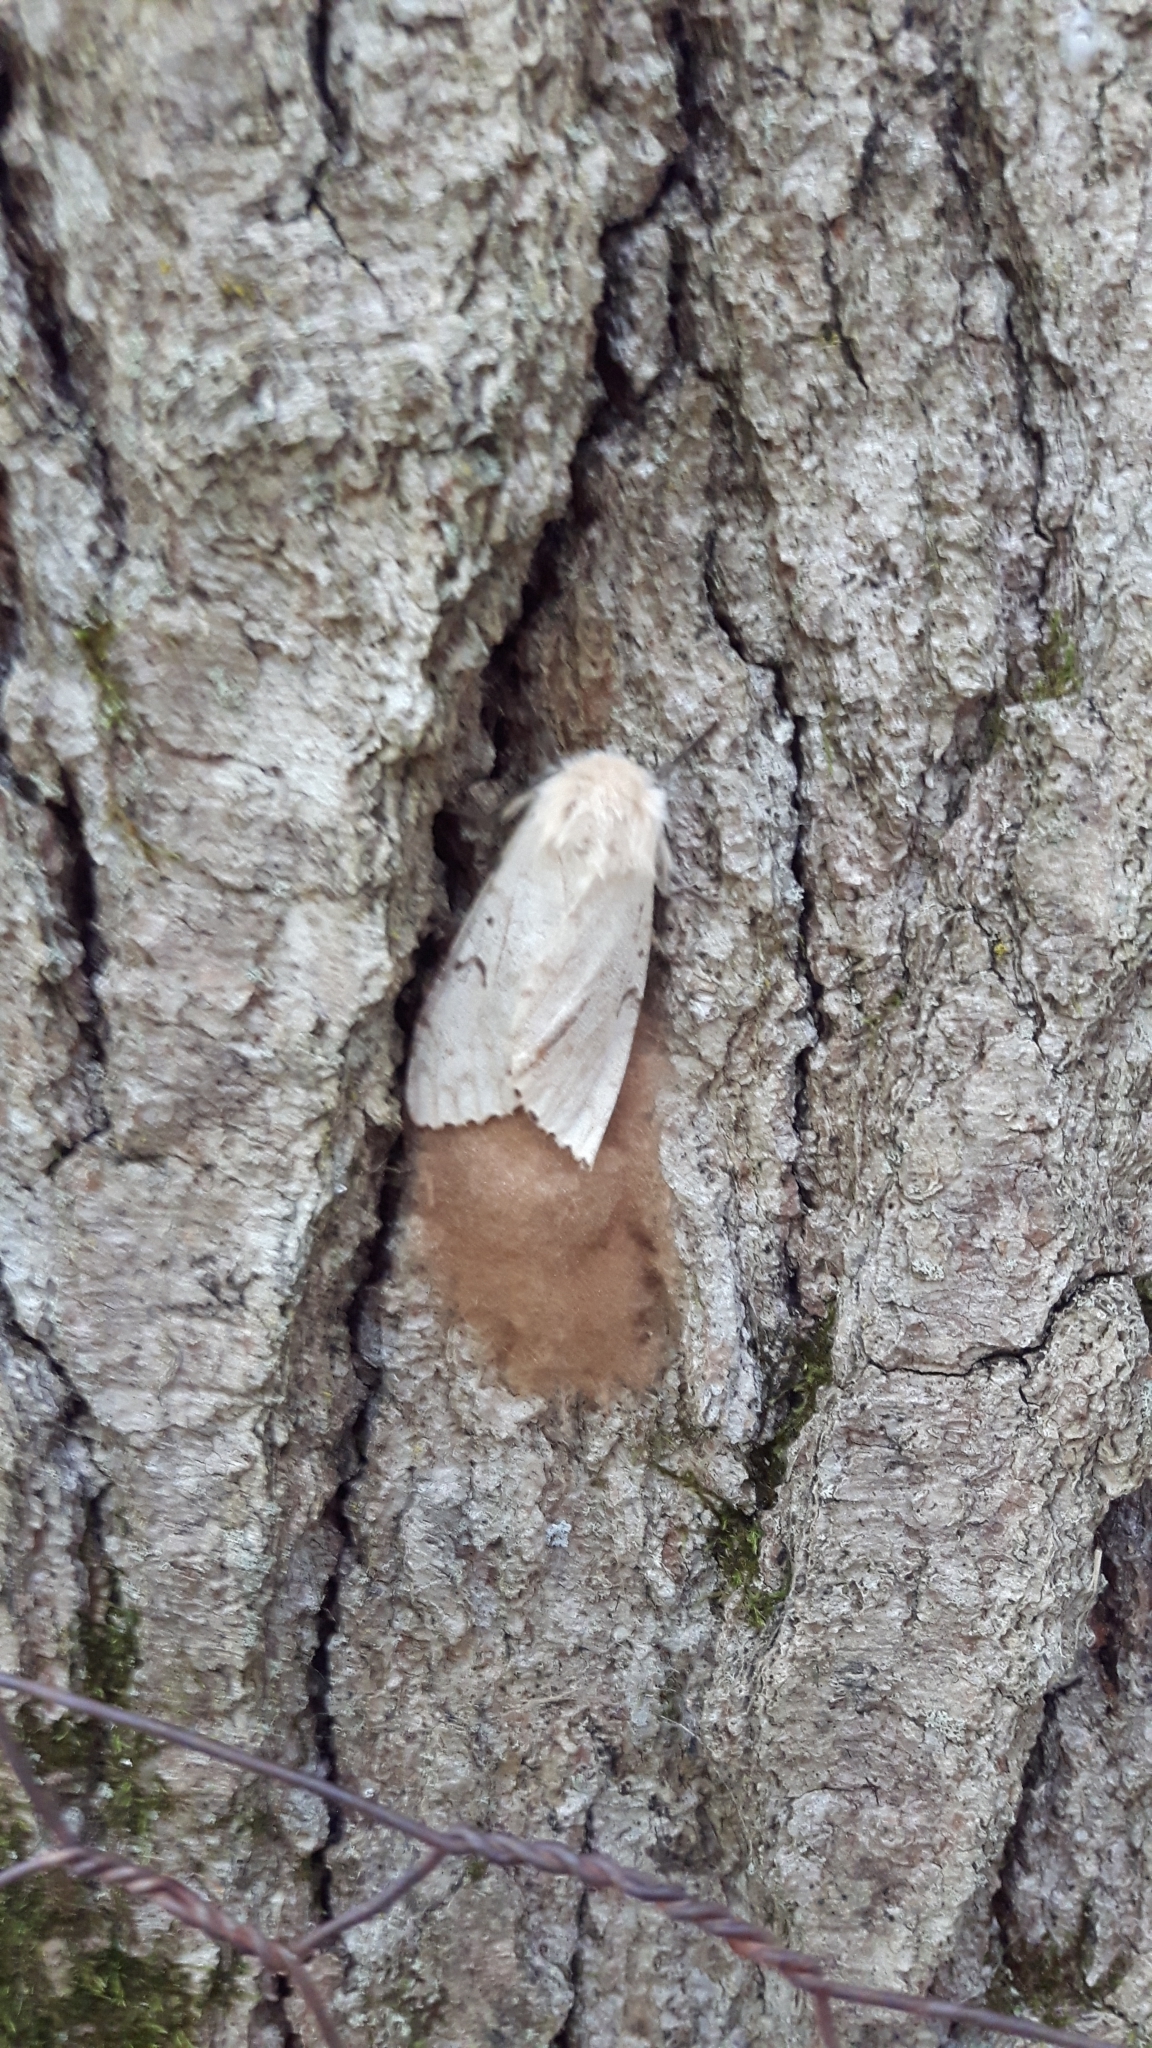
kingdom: Animalia
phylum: Arthropoda
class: Insecta
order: Lepidoptera
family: Erebidae
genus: Lymantria
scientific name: Lymantria dispar
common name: Gypsy moth
